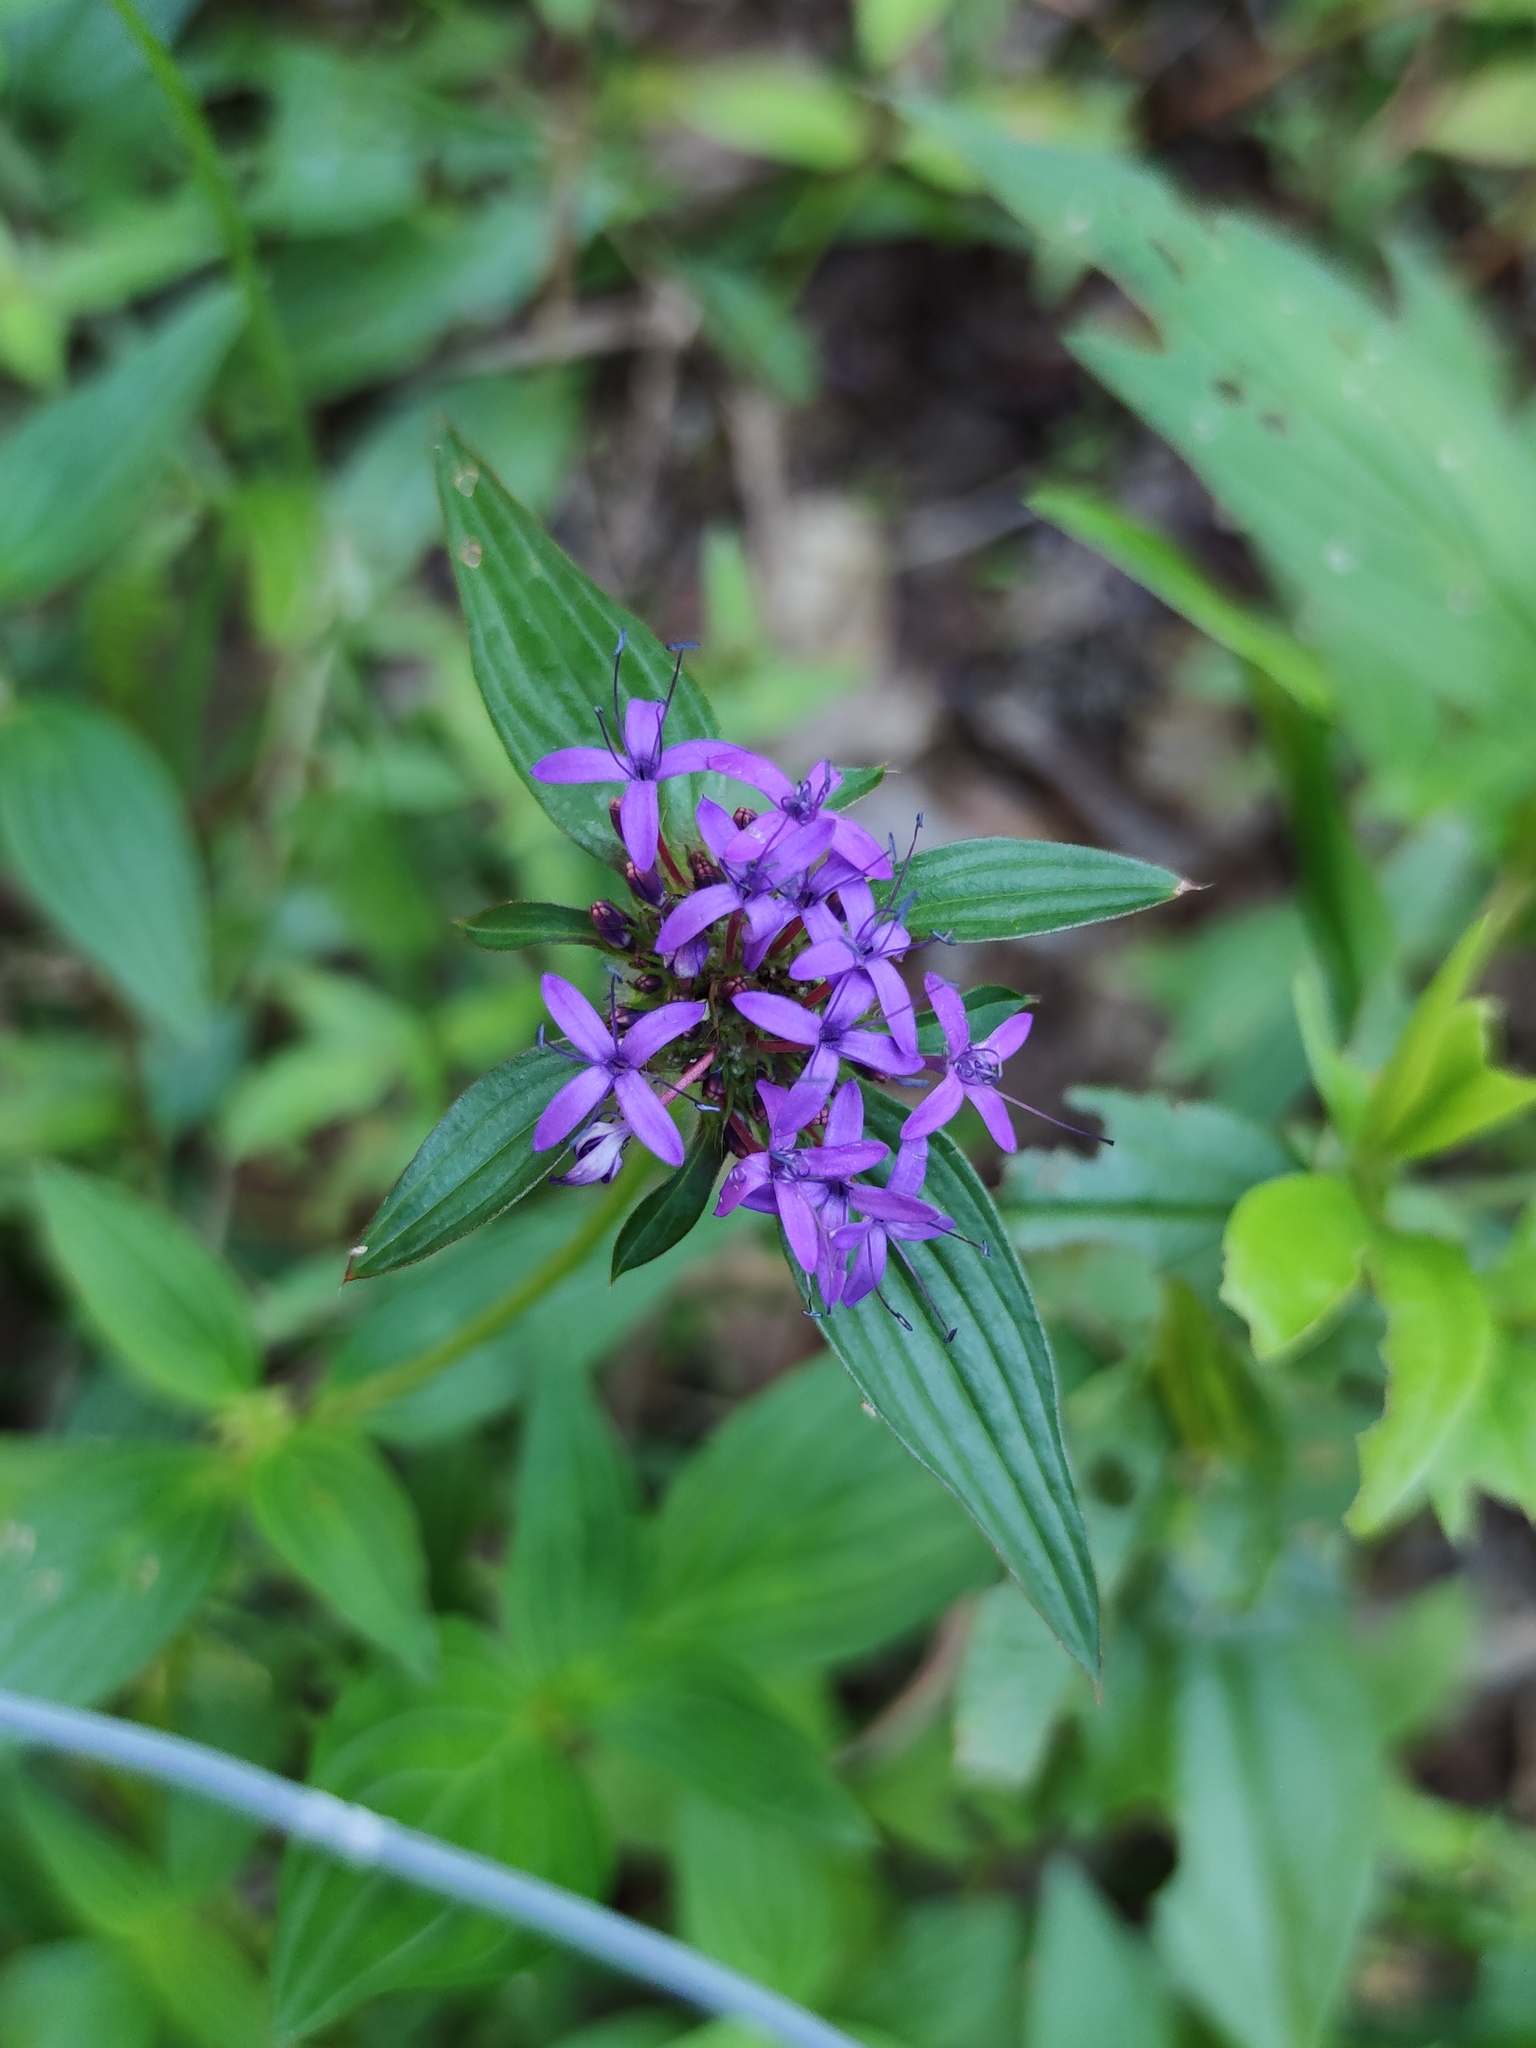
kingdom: Plantae
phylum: Tracheophyta
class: Magnoliopsida
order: Gentianales
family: Rubiaceae
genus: Crusea
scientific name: Crusea hispida
